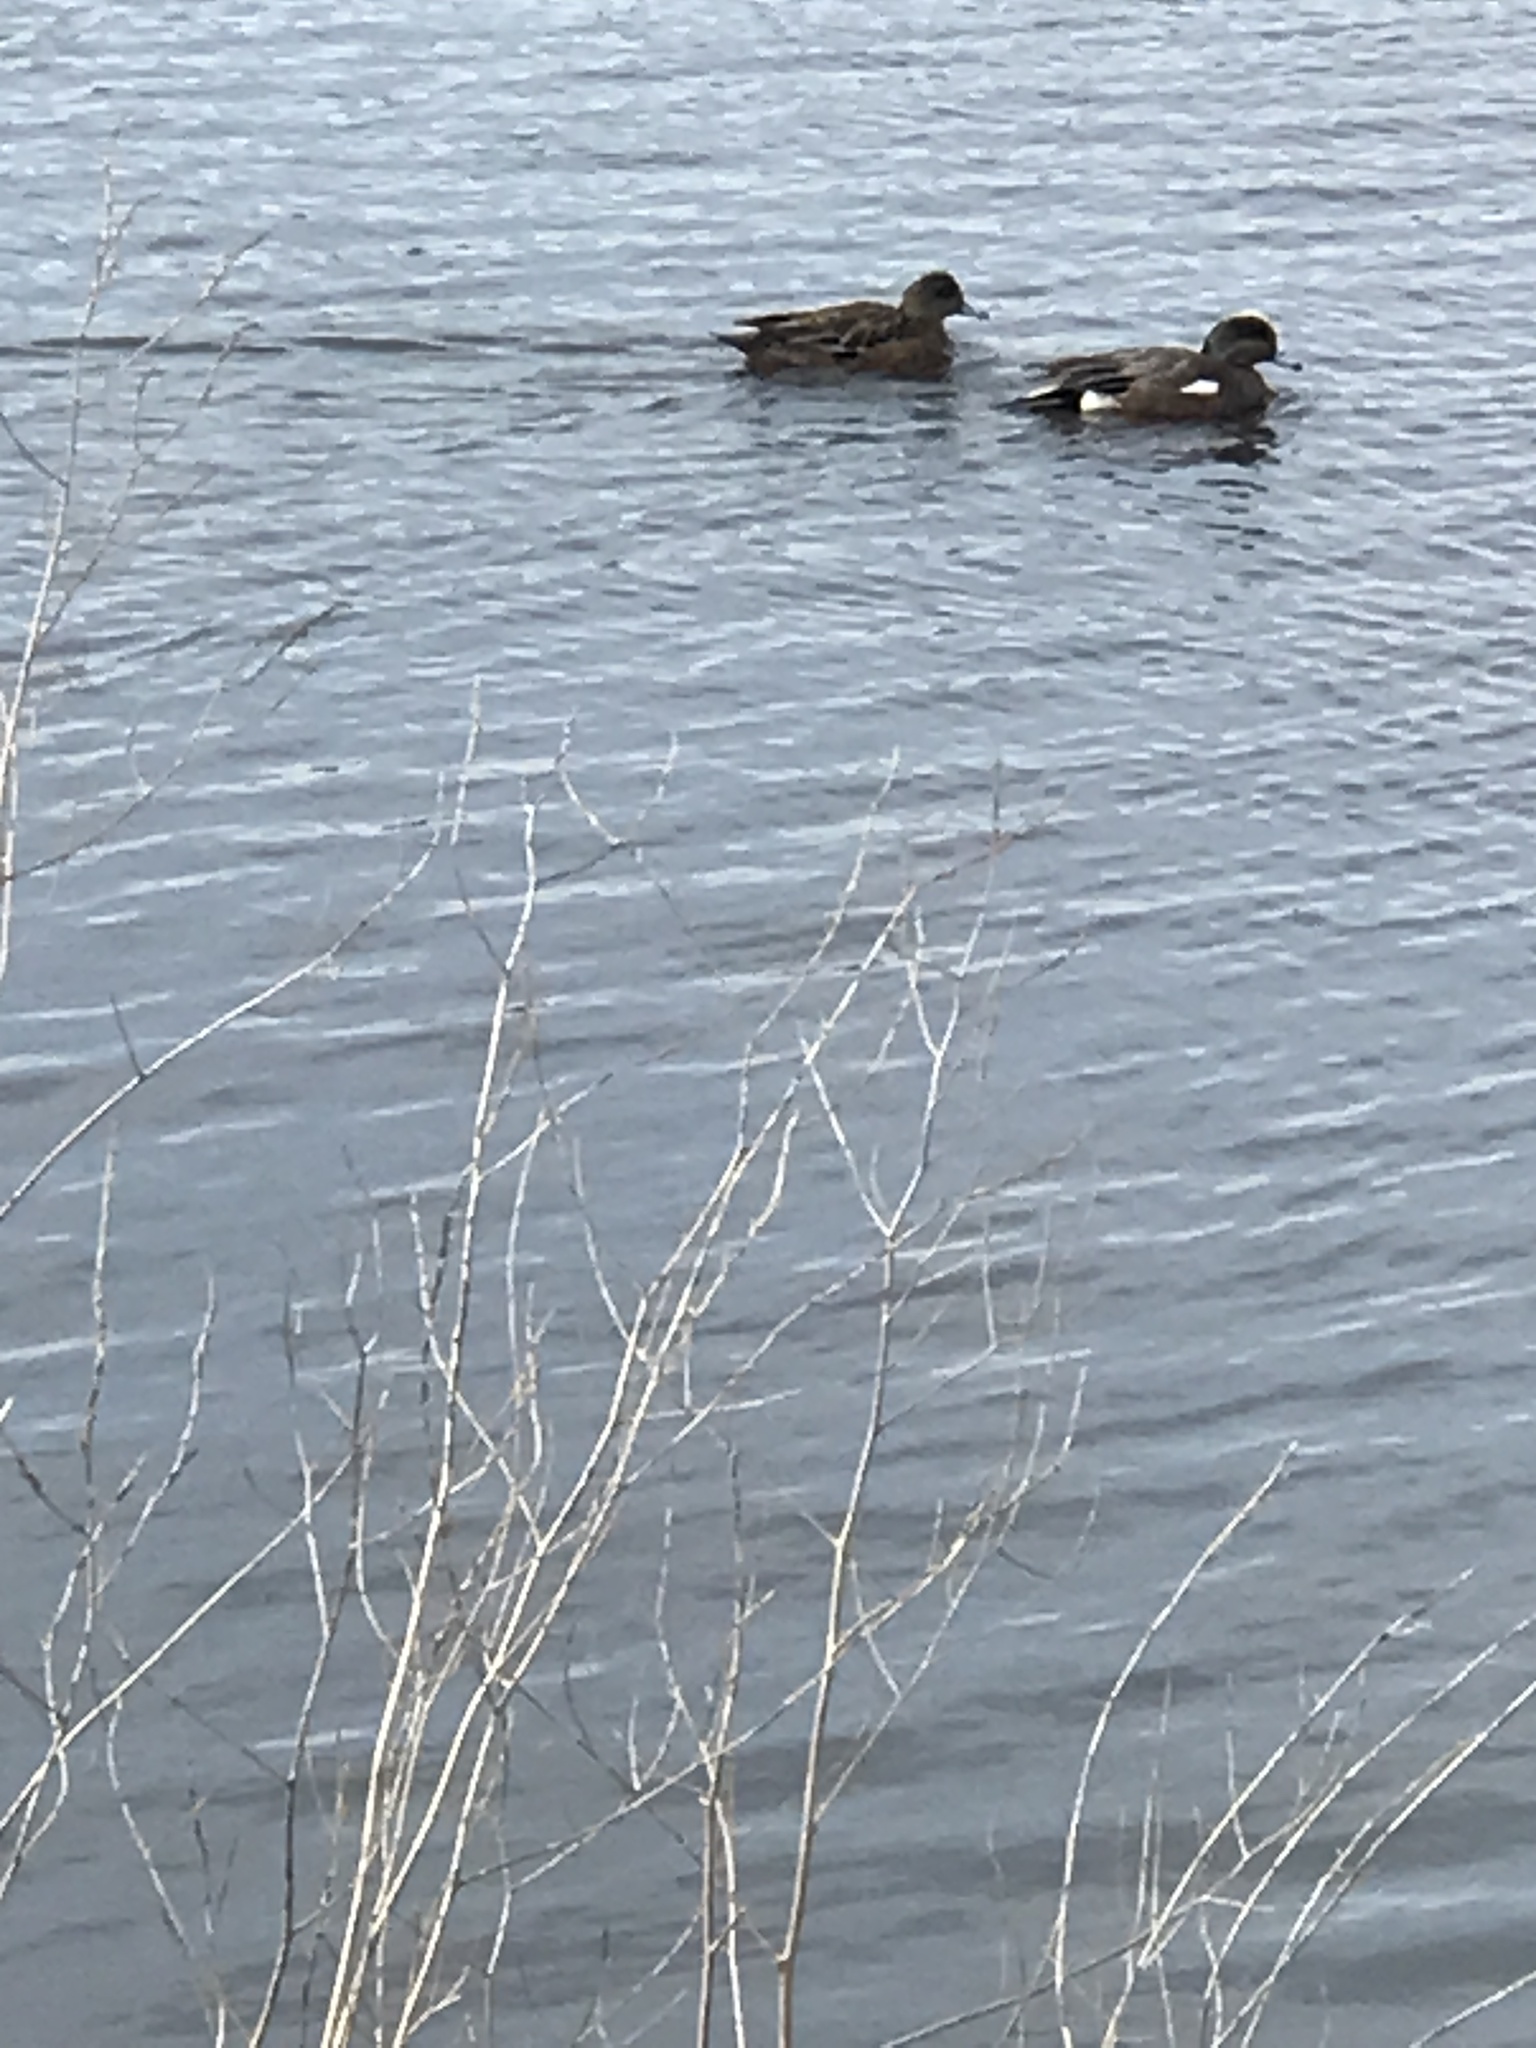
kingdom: Animalia
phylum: Chordata
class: Aves
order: Anseriformes
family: Anatidae
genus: Mareca
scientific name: Mareca americana
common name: American wigeon
